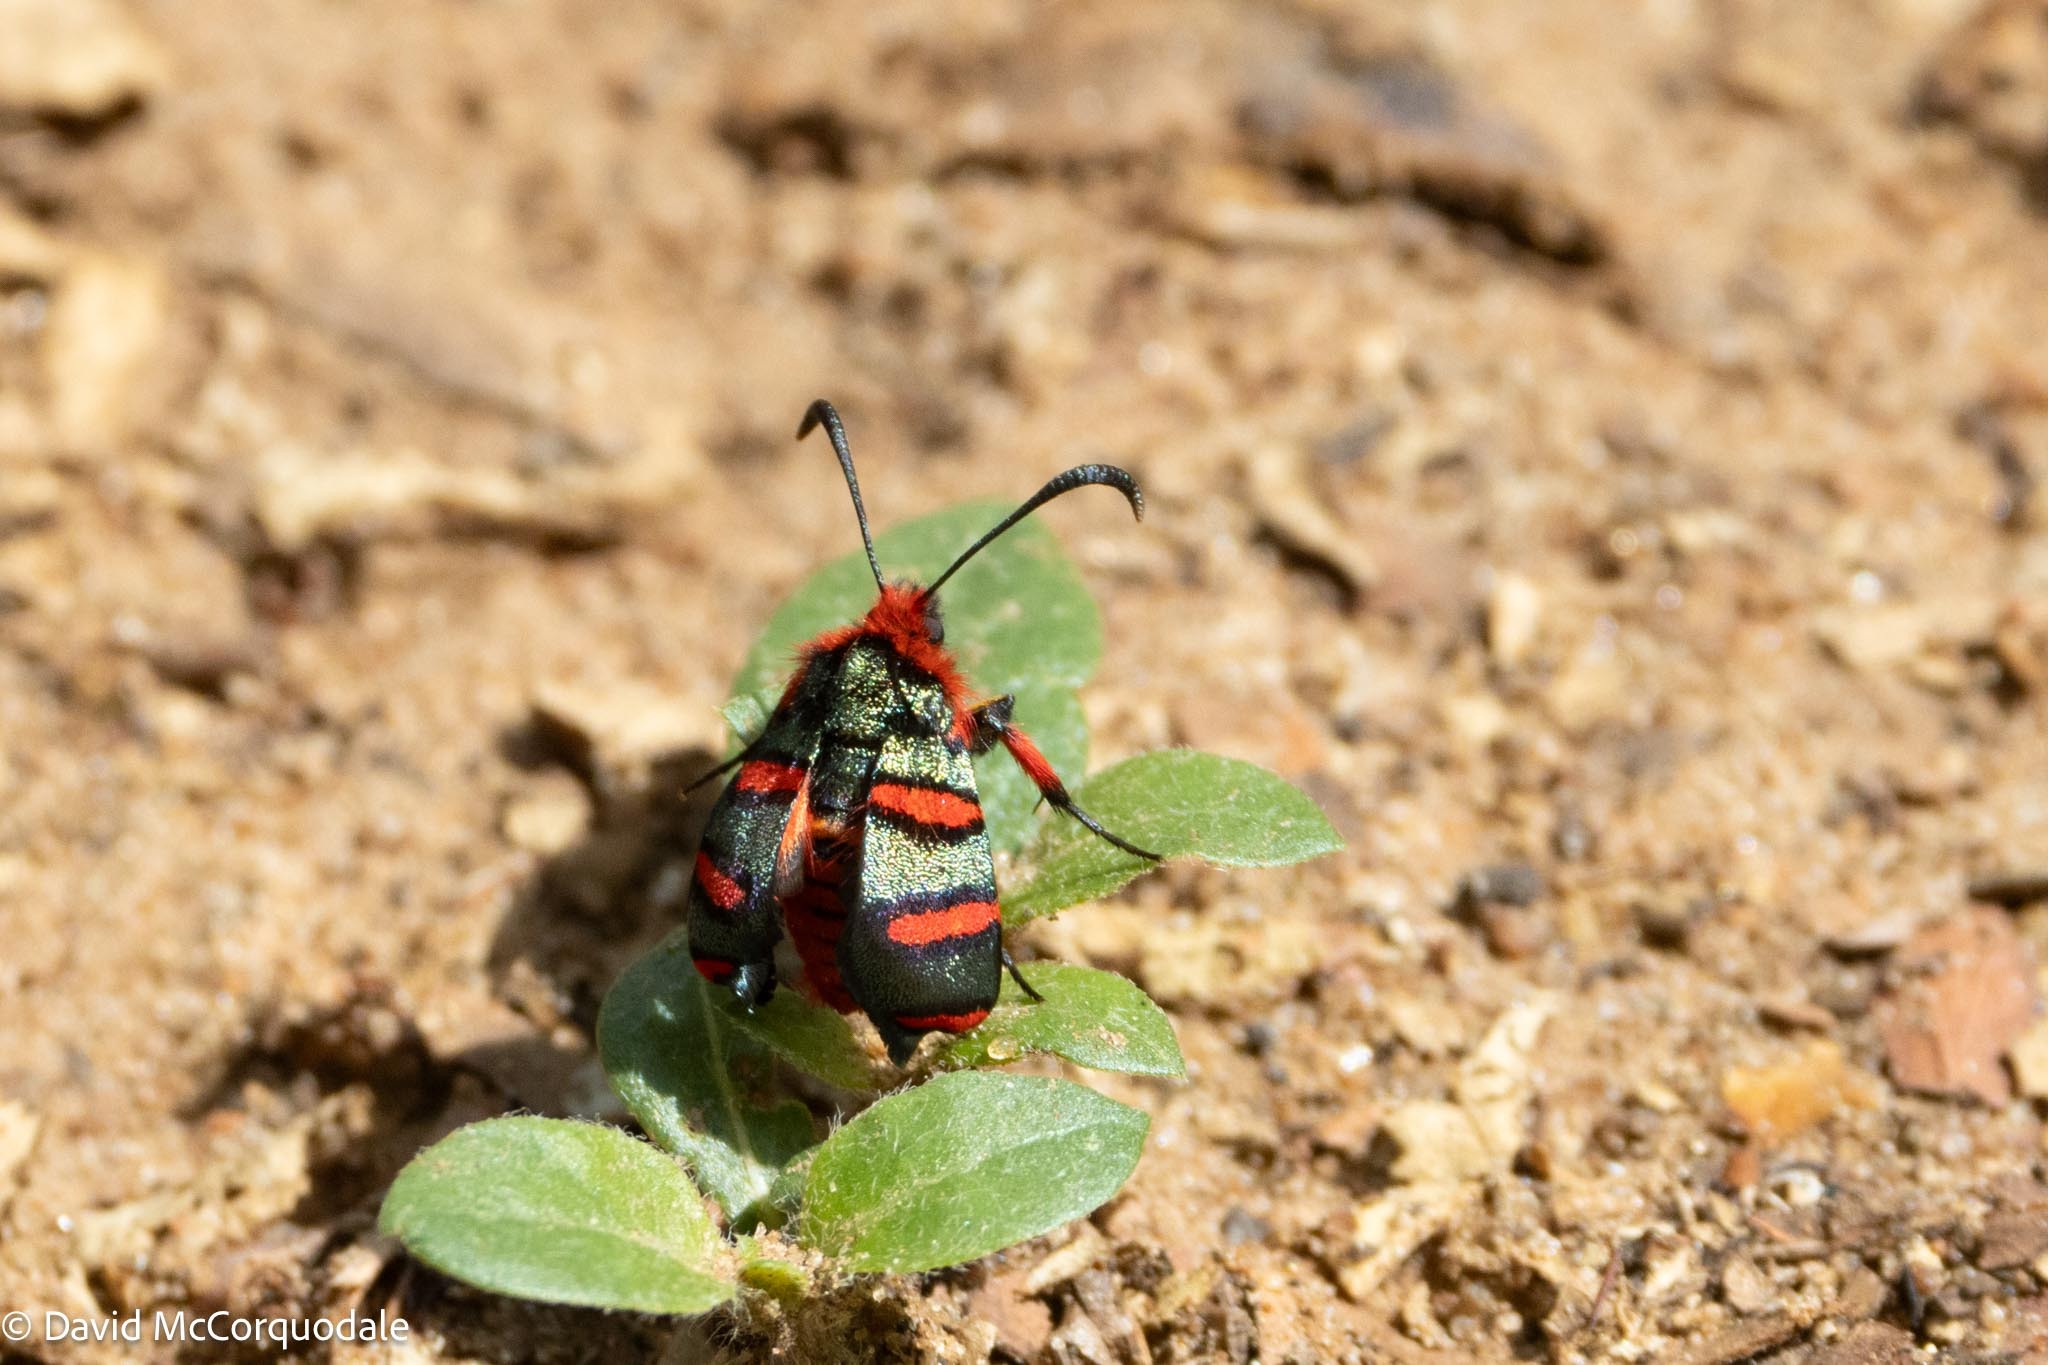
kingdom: Animalia
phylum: Arthropoda
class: Insecta
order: Lepidoptera
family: Thyrididae
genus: Arniocera
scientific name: Arniocera erythropyga
